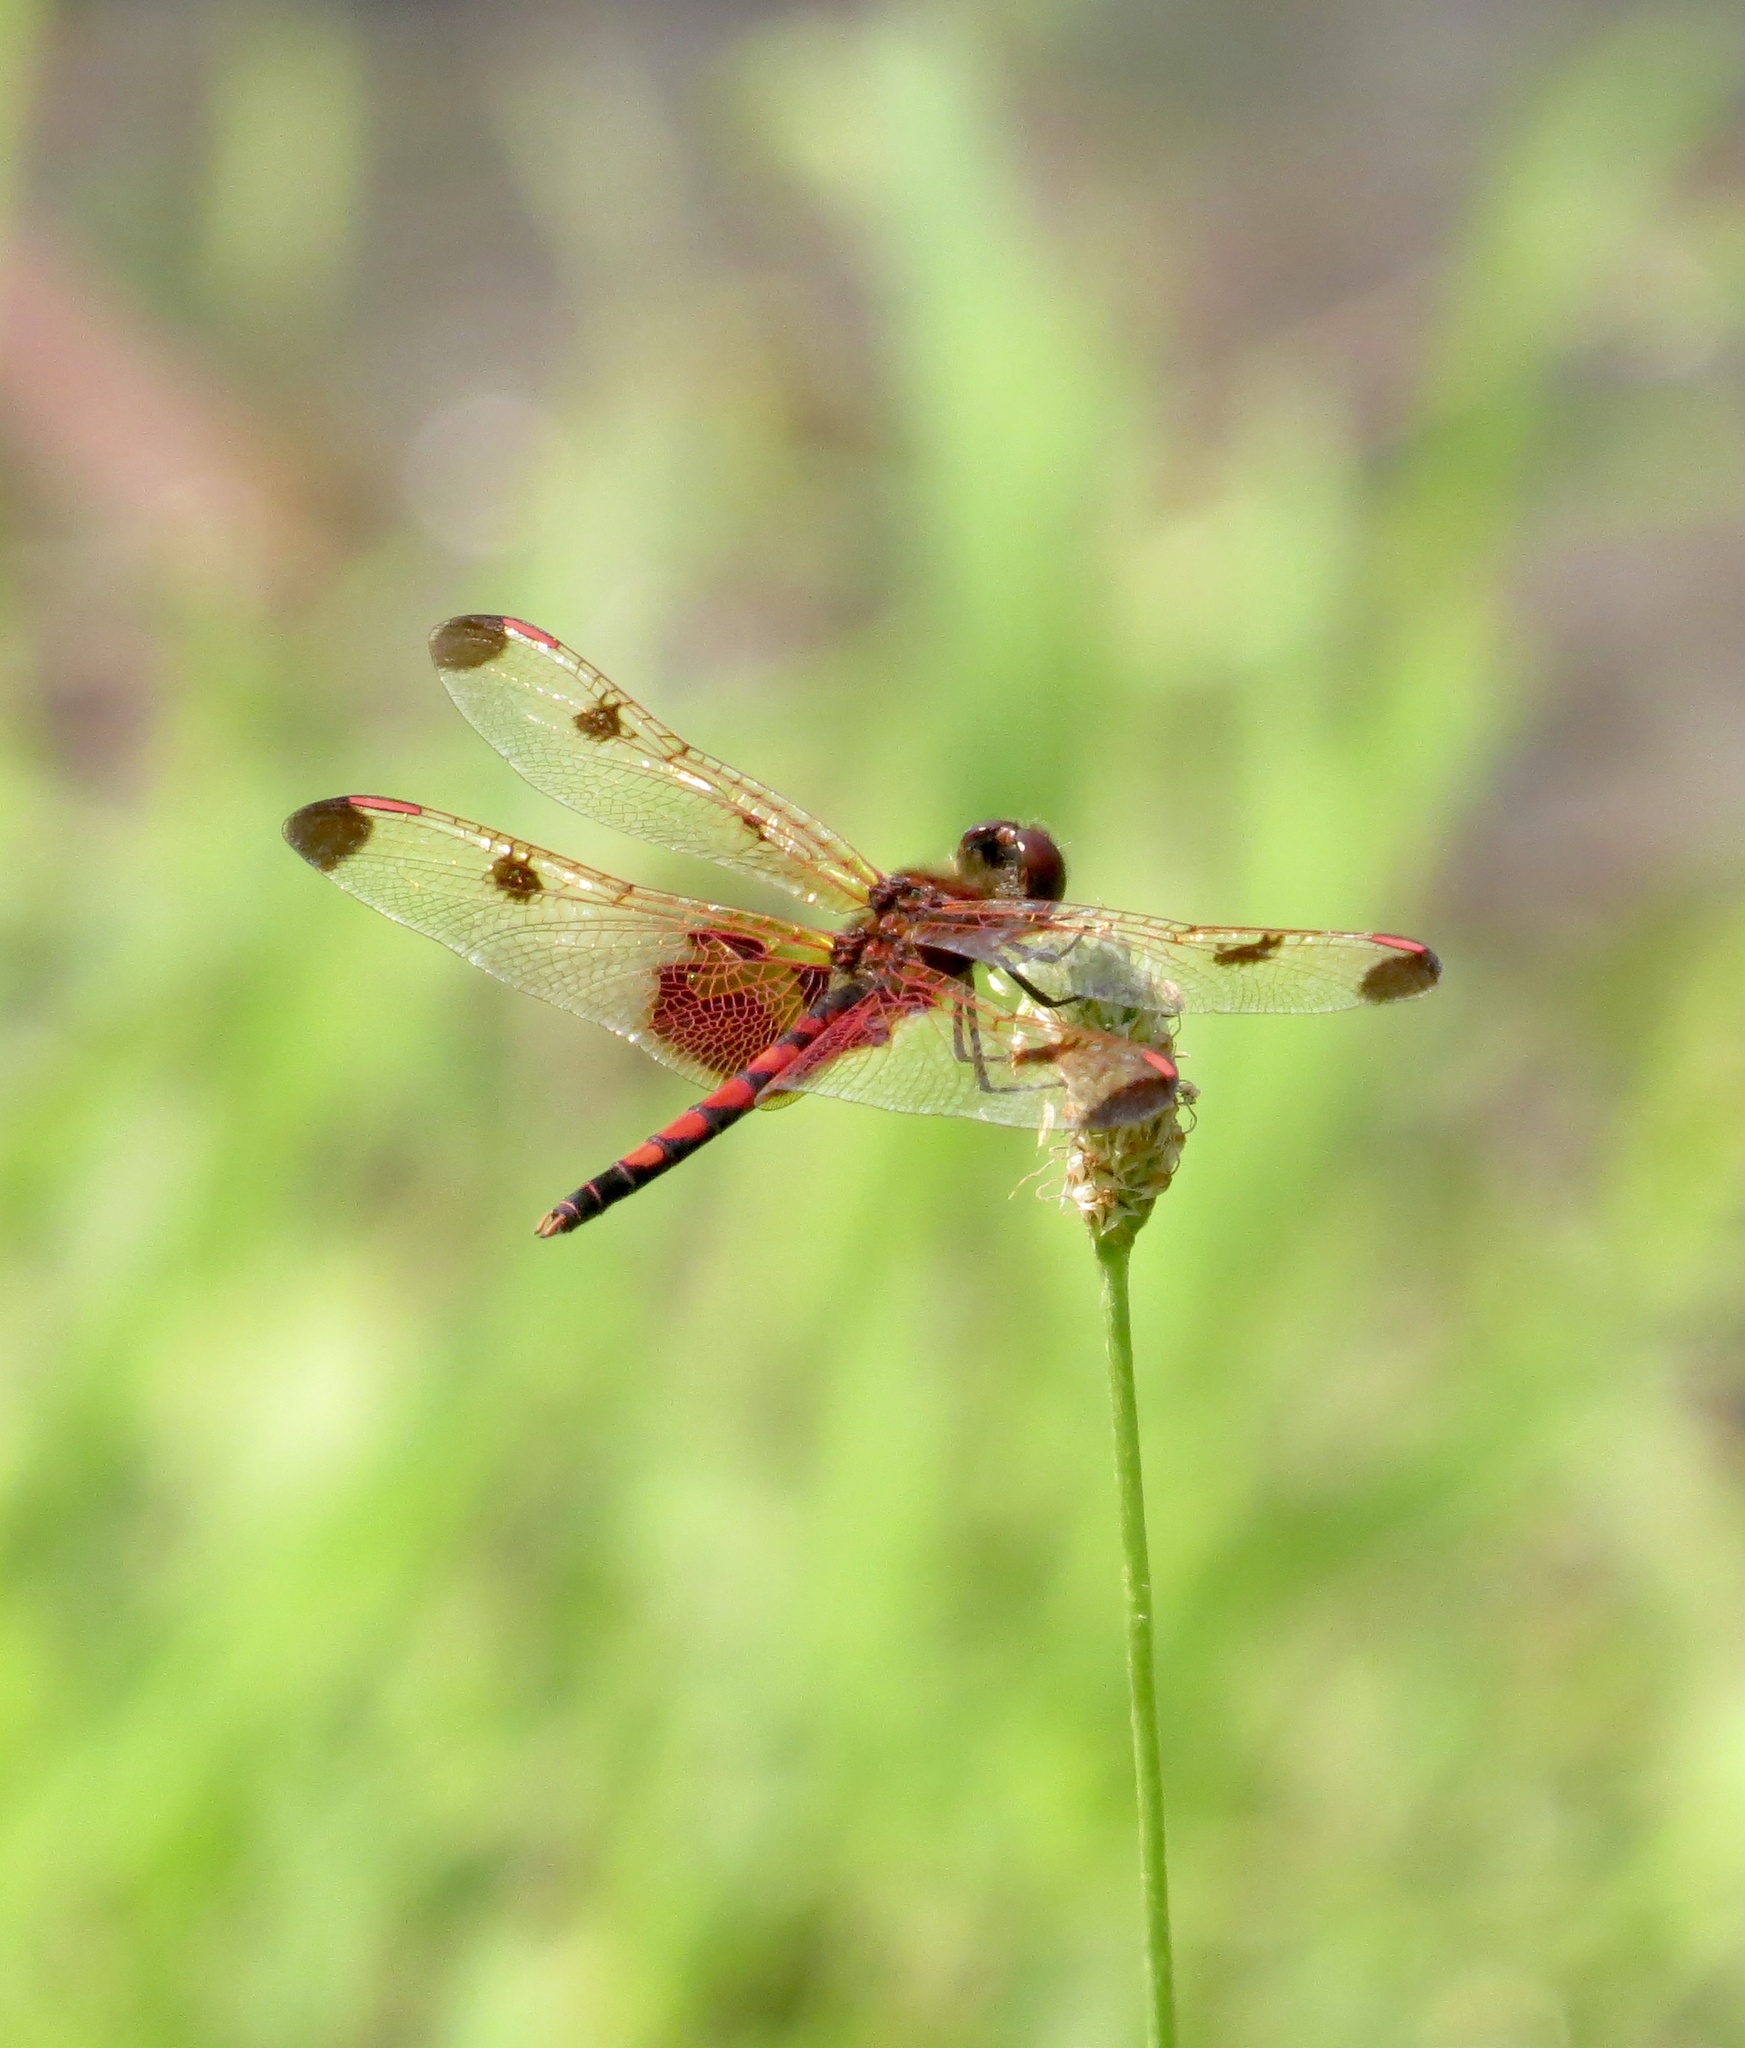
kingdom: Animalia
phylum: Arthropoda
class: Insecta
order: Odonata
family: Libellulidae
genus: Celithemis
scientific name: Celithemis elisa
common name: Calico pennant
